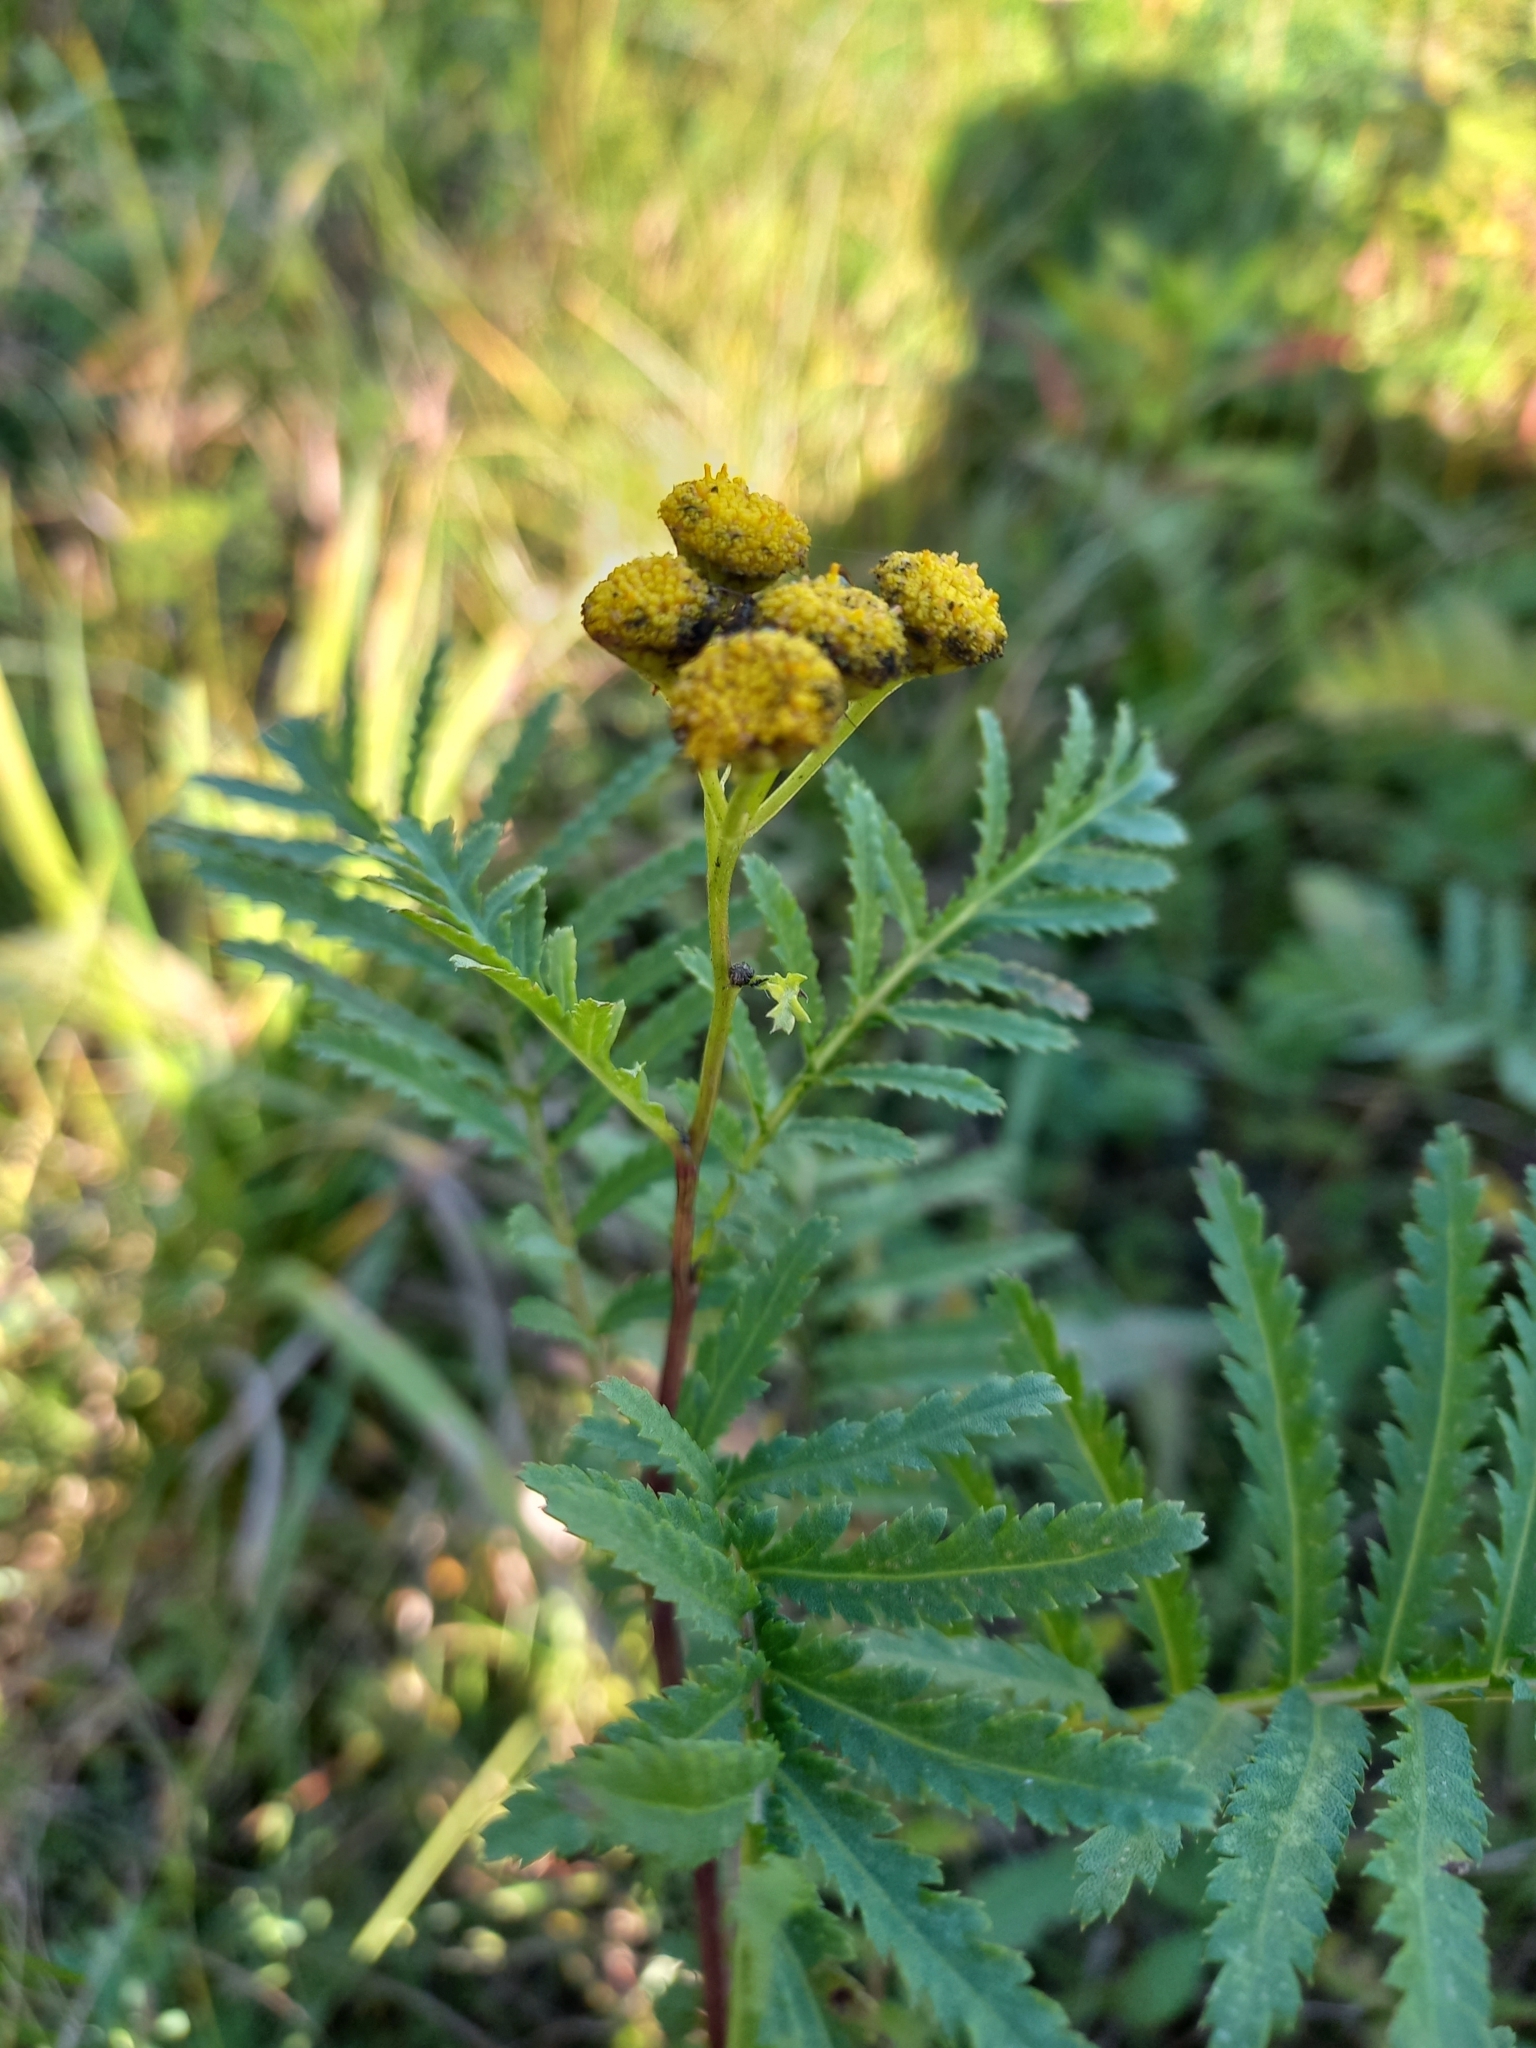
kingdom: Plantae
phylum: Tracheophyta
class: Magnoliopsida
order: Asterales
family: Asteraceae
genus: Tanacetum
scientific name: Tanacetum vulgare
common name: Common tansy
